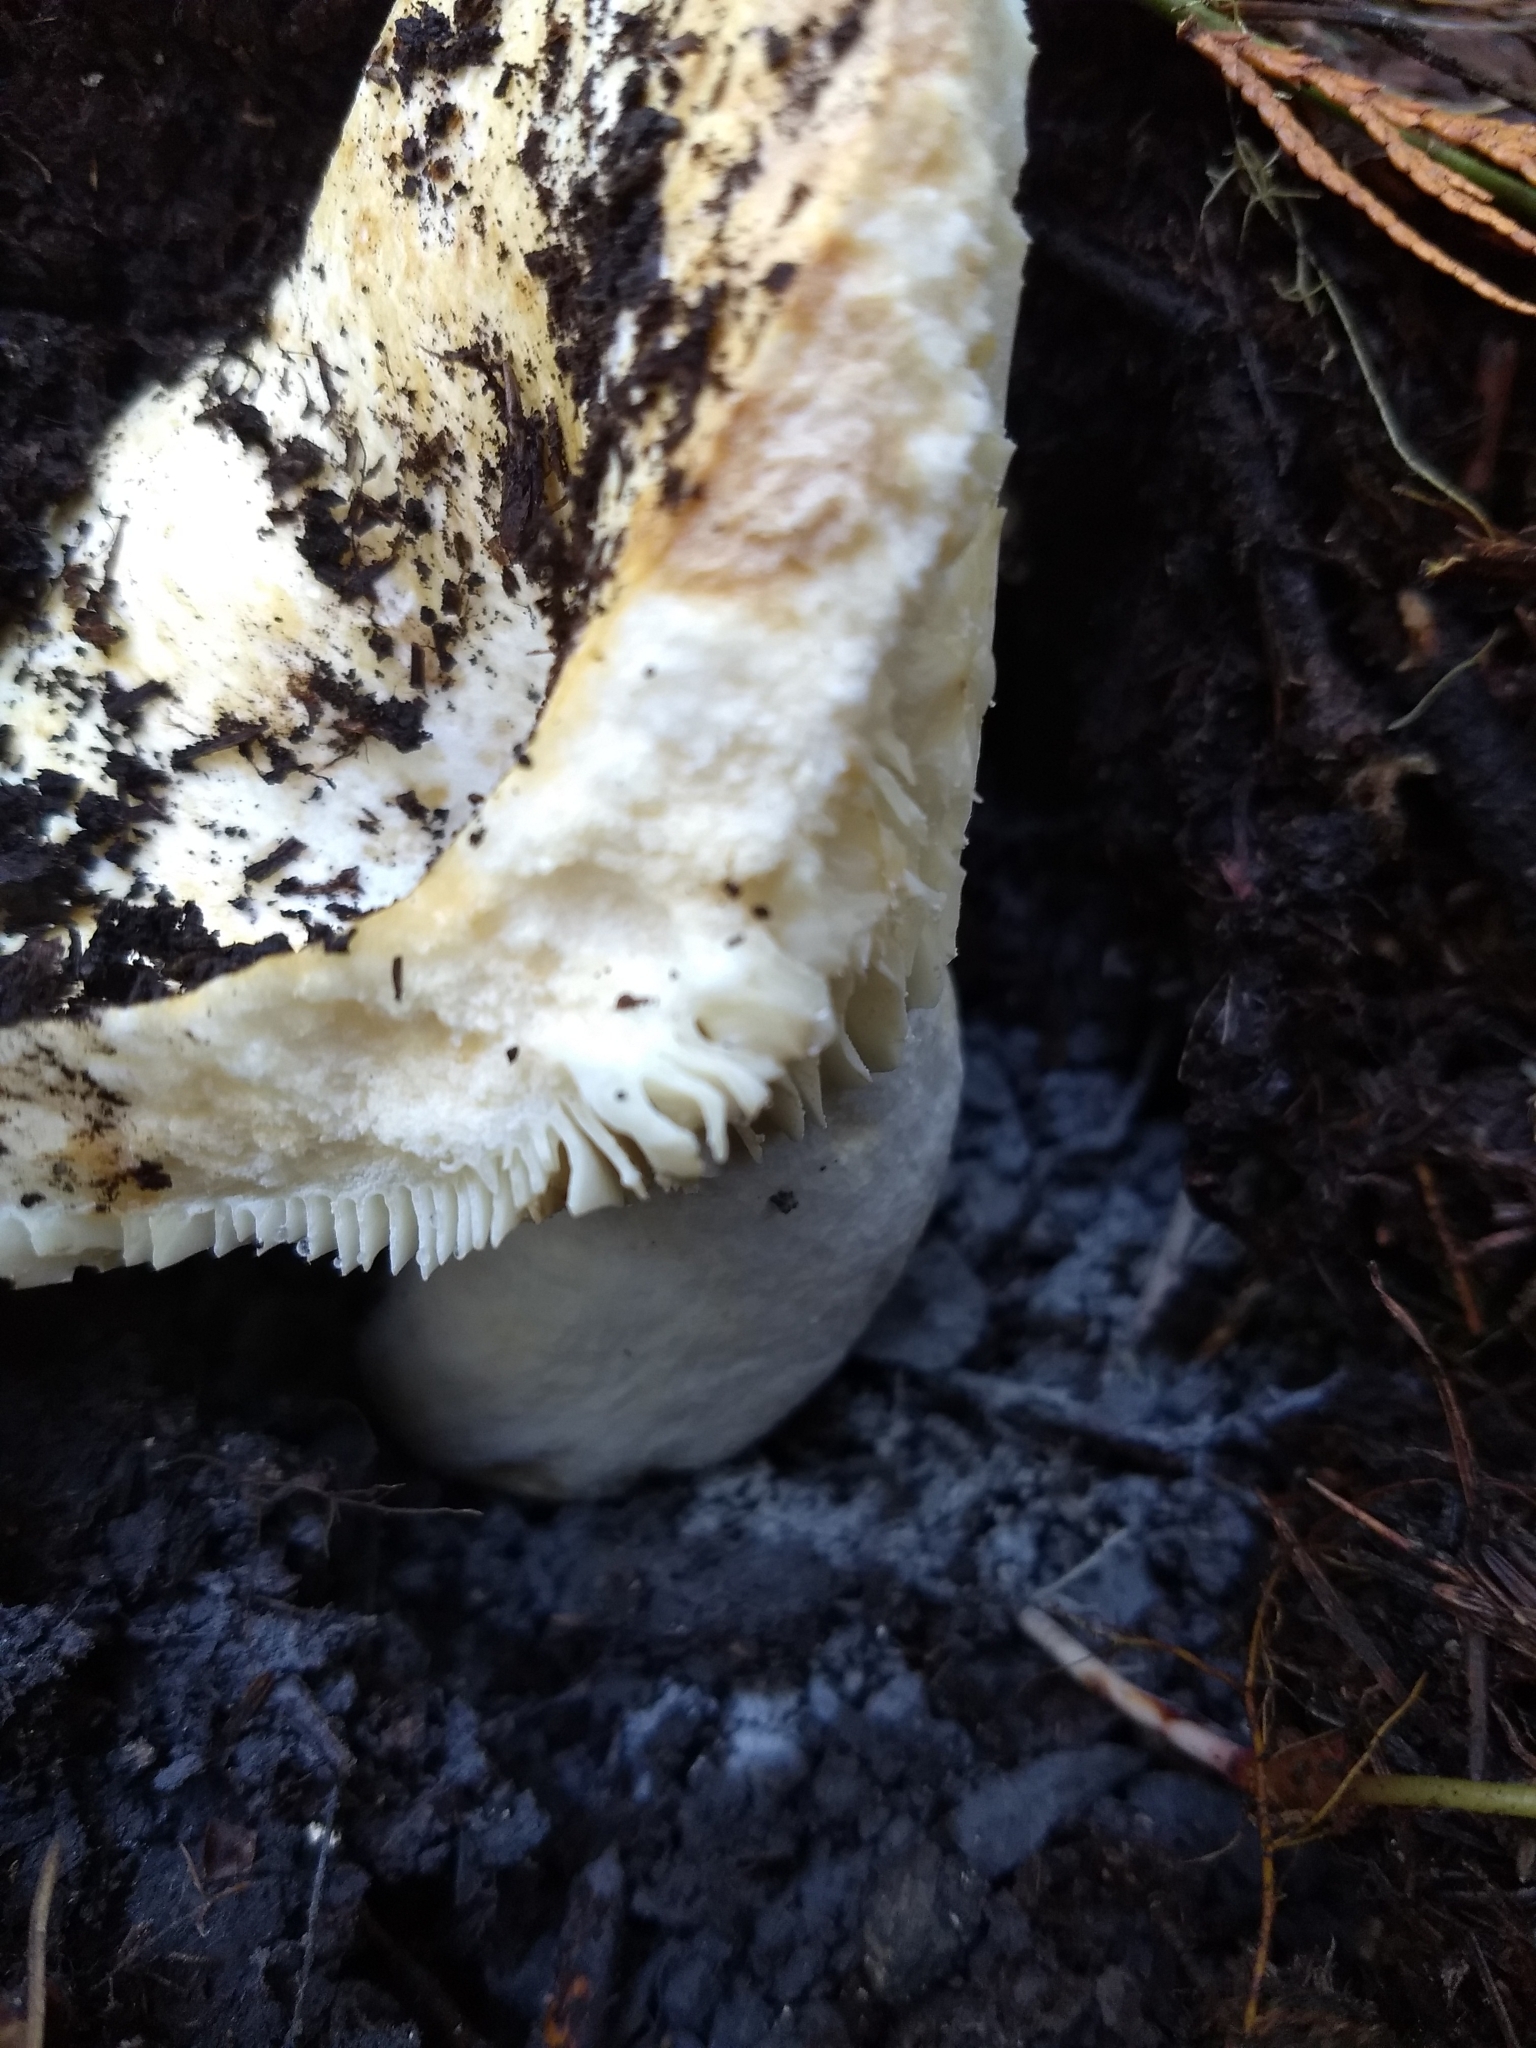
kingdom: Fungi
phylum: Basidiomycota
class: Agaricomycetes
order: Russulales
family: Russulaceae
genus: Russula
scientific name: Russula brevipes
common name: Short-stemmed russula
